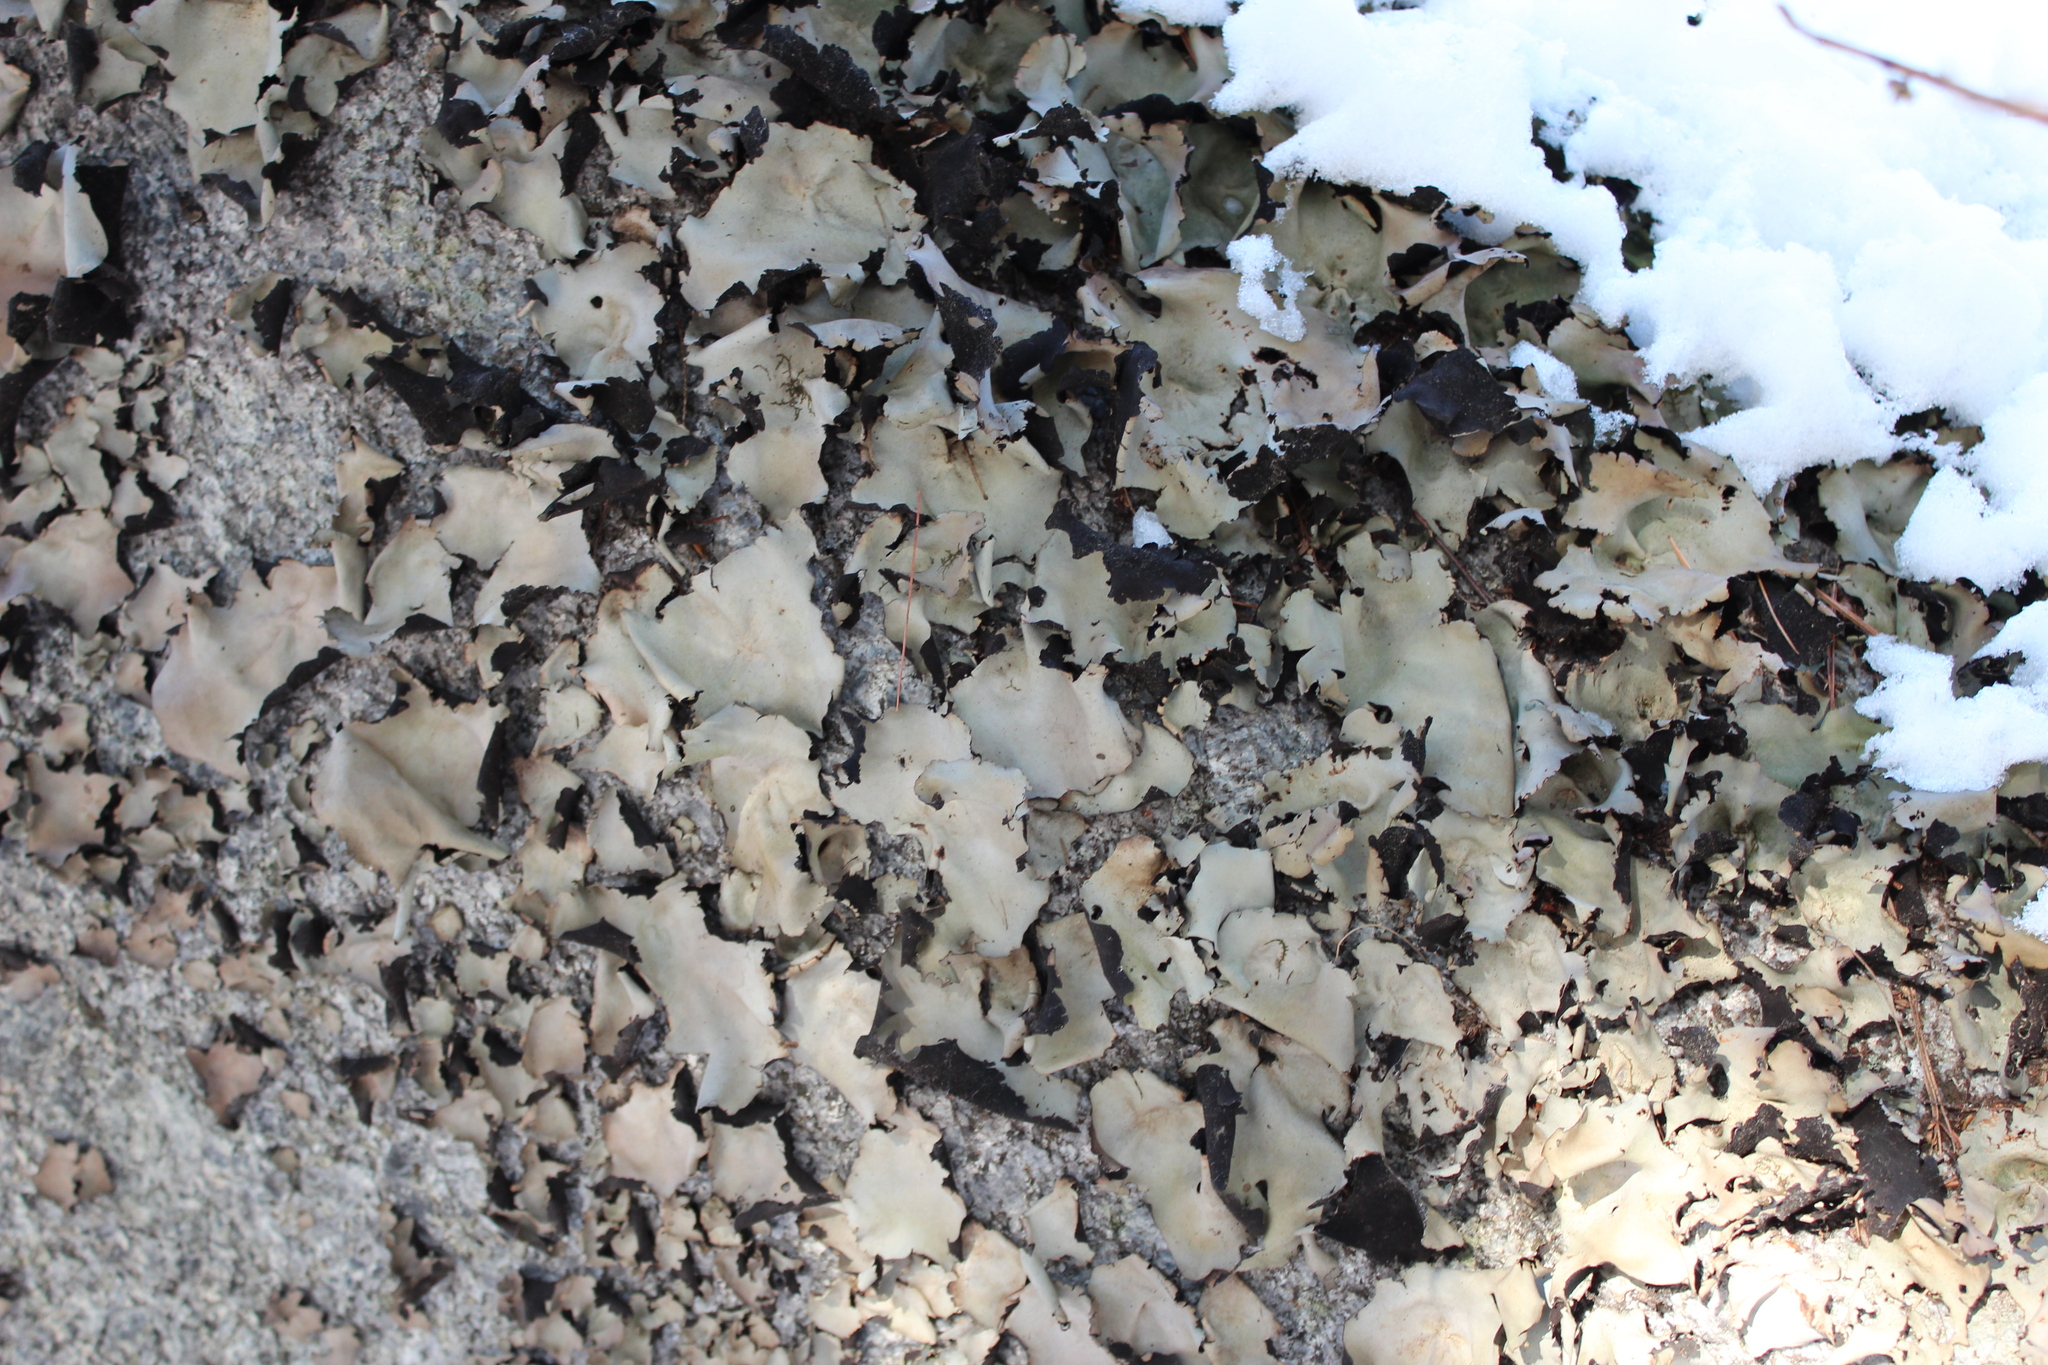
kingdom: Fungi
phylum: Ascomycota
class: Lecanoromycetes
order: Umbilicariales
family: Umbilicariaceae
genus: Umbilicaria
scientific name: Umbilicaria mammulata
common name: Smooth rock tripe
